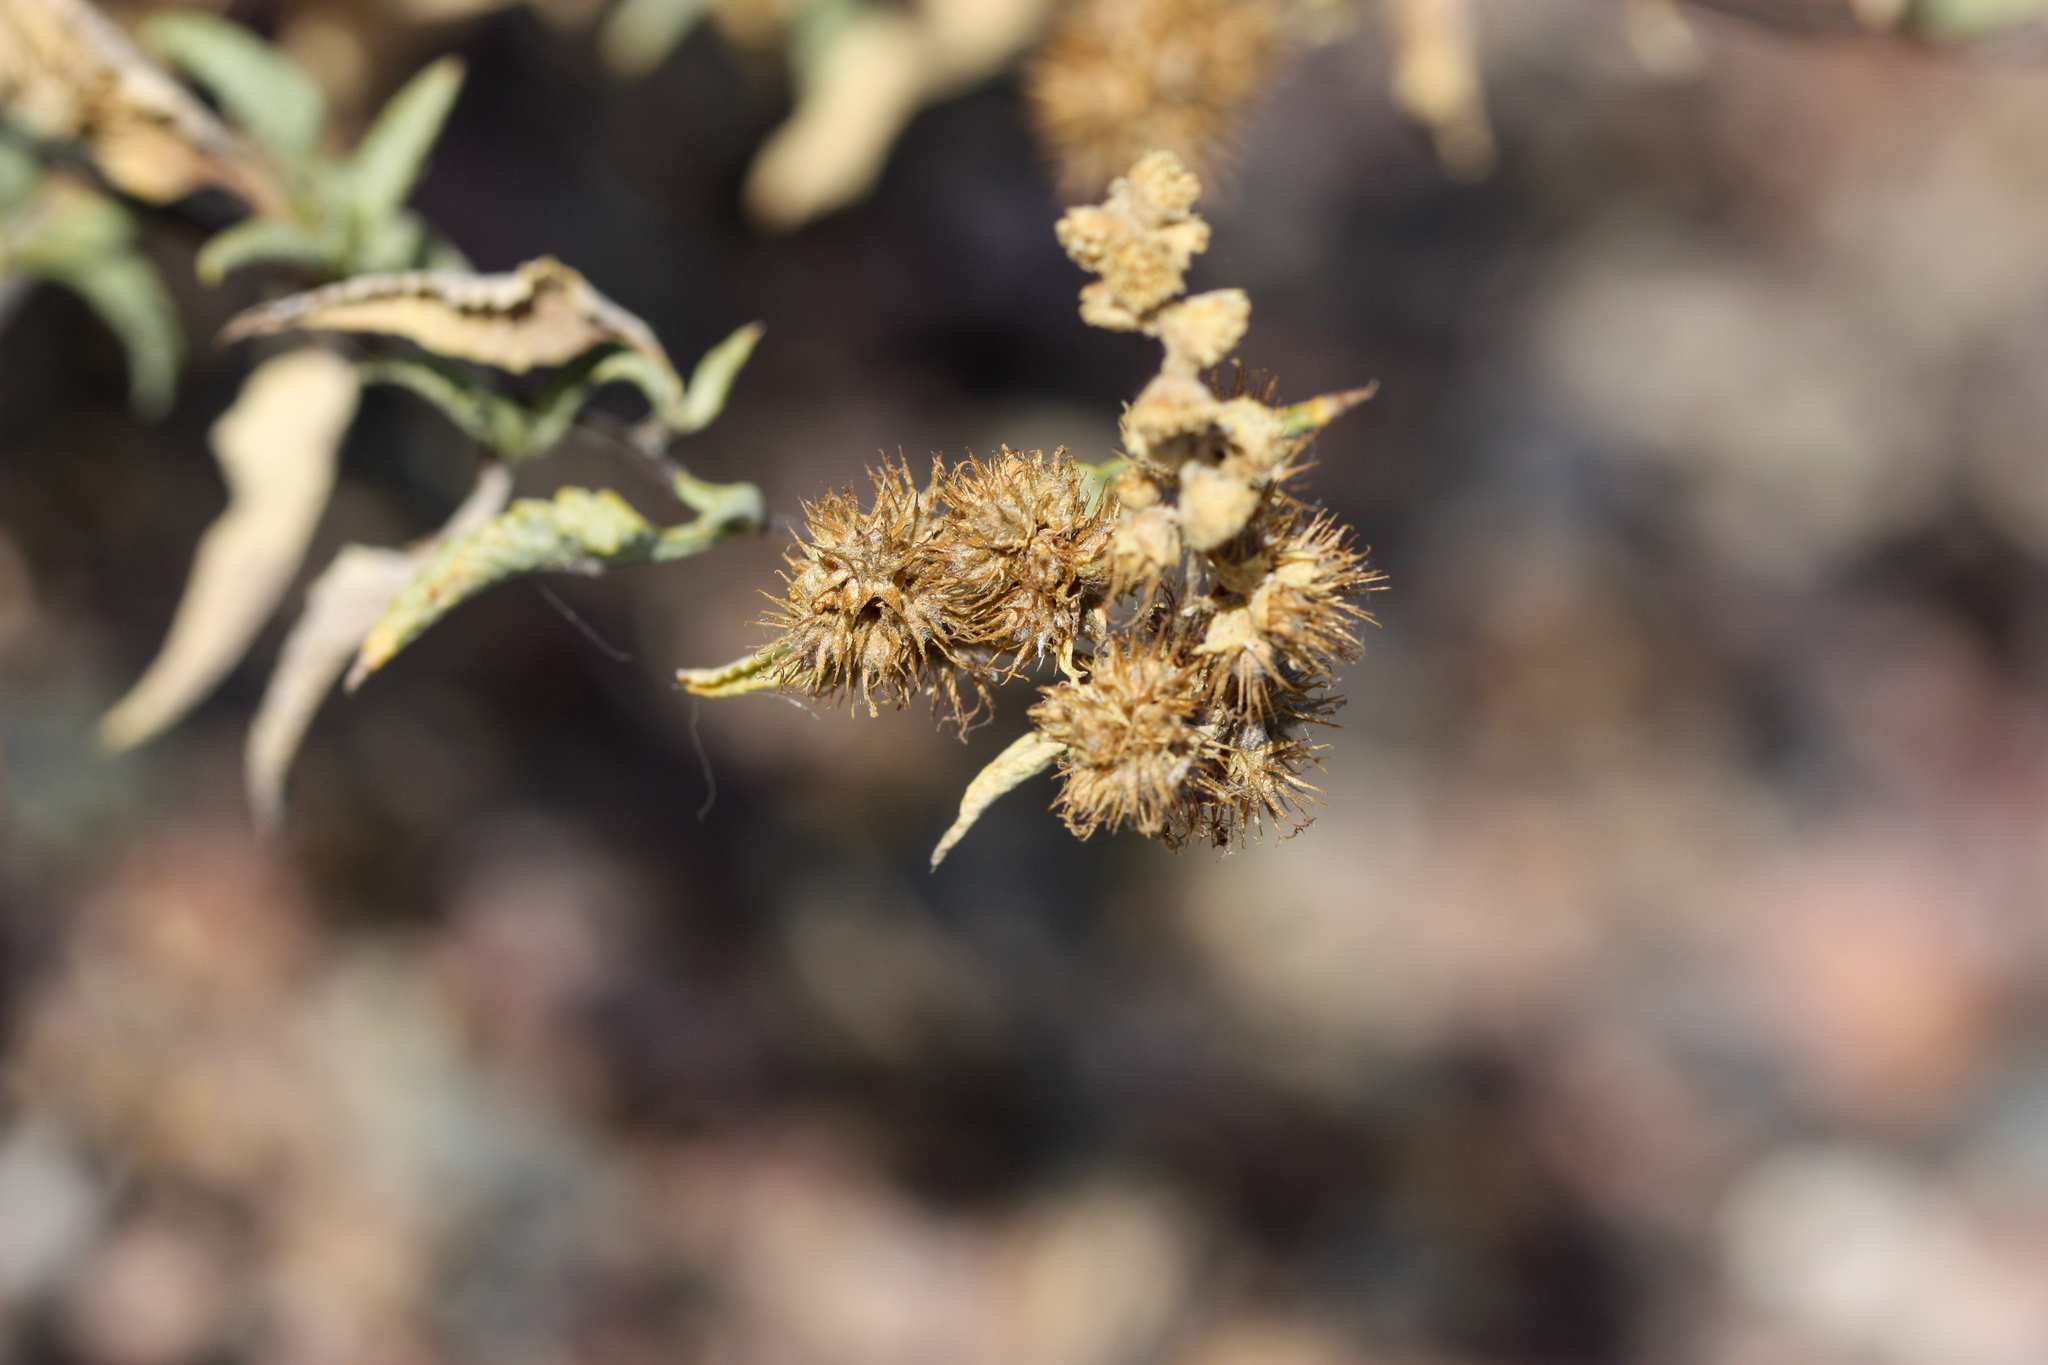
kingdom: Plantae
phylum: Tracheophyta
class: Magnoliopsida
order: Asterales
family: Asteraceae
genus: Ambrosia
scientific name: Ambrosia deltoidea
